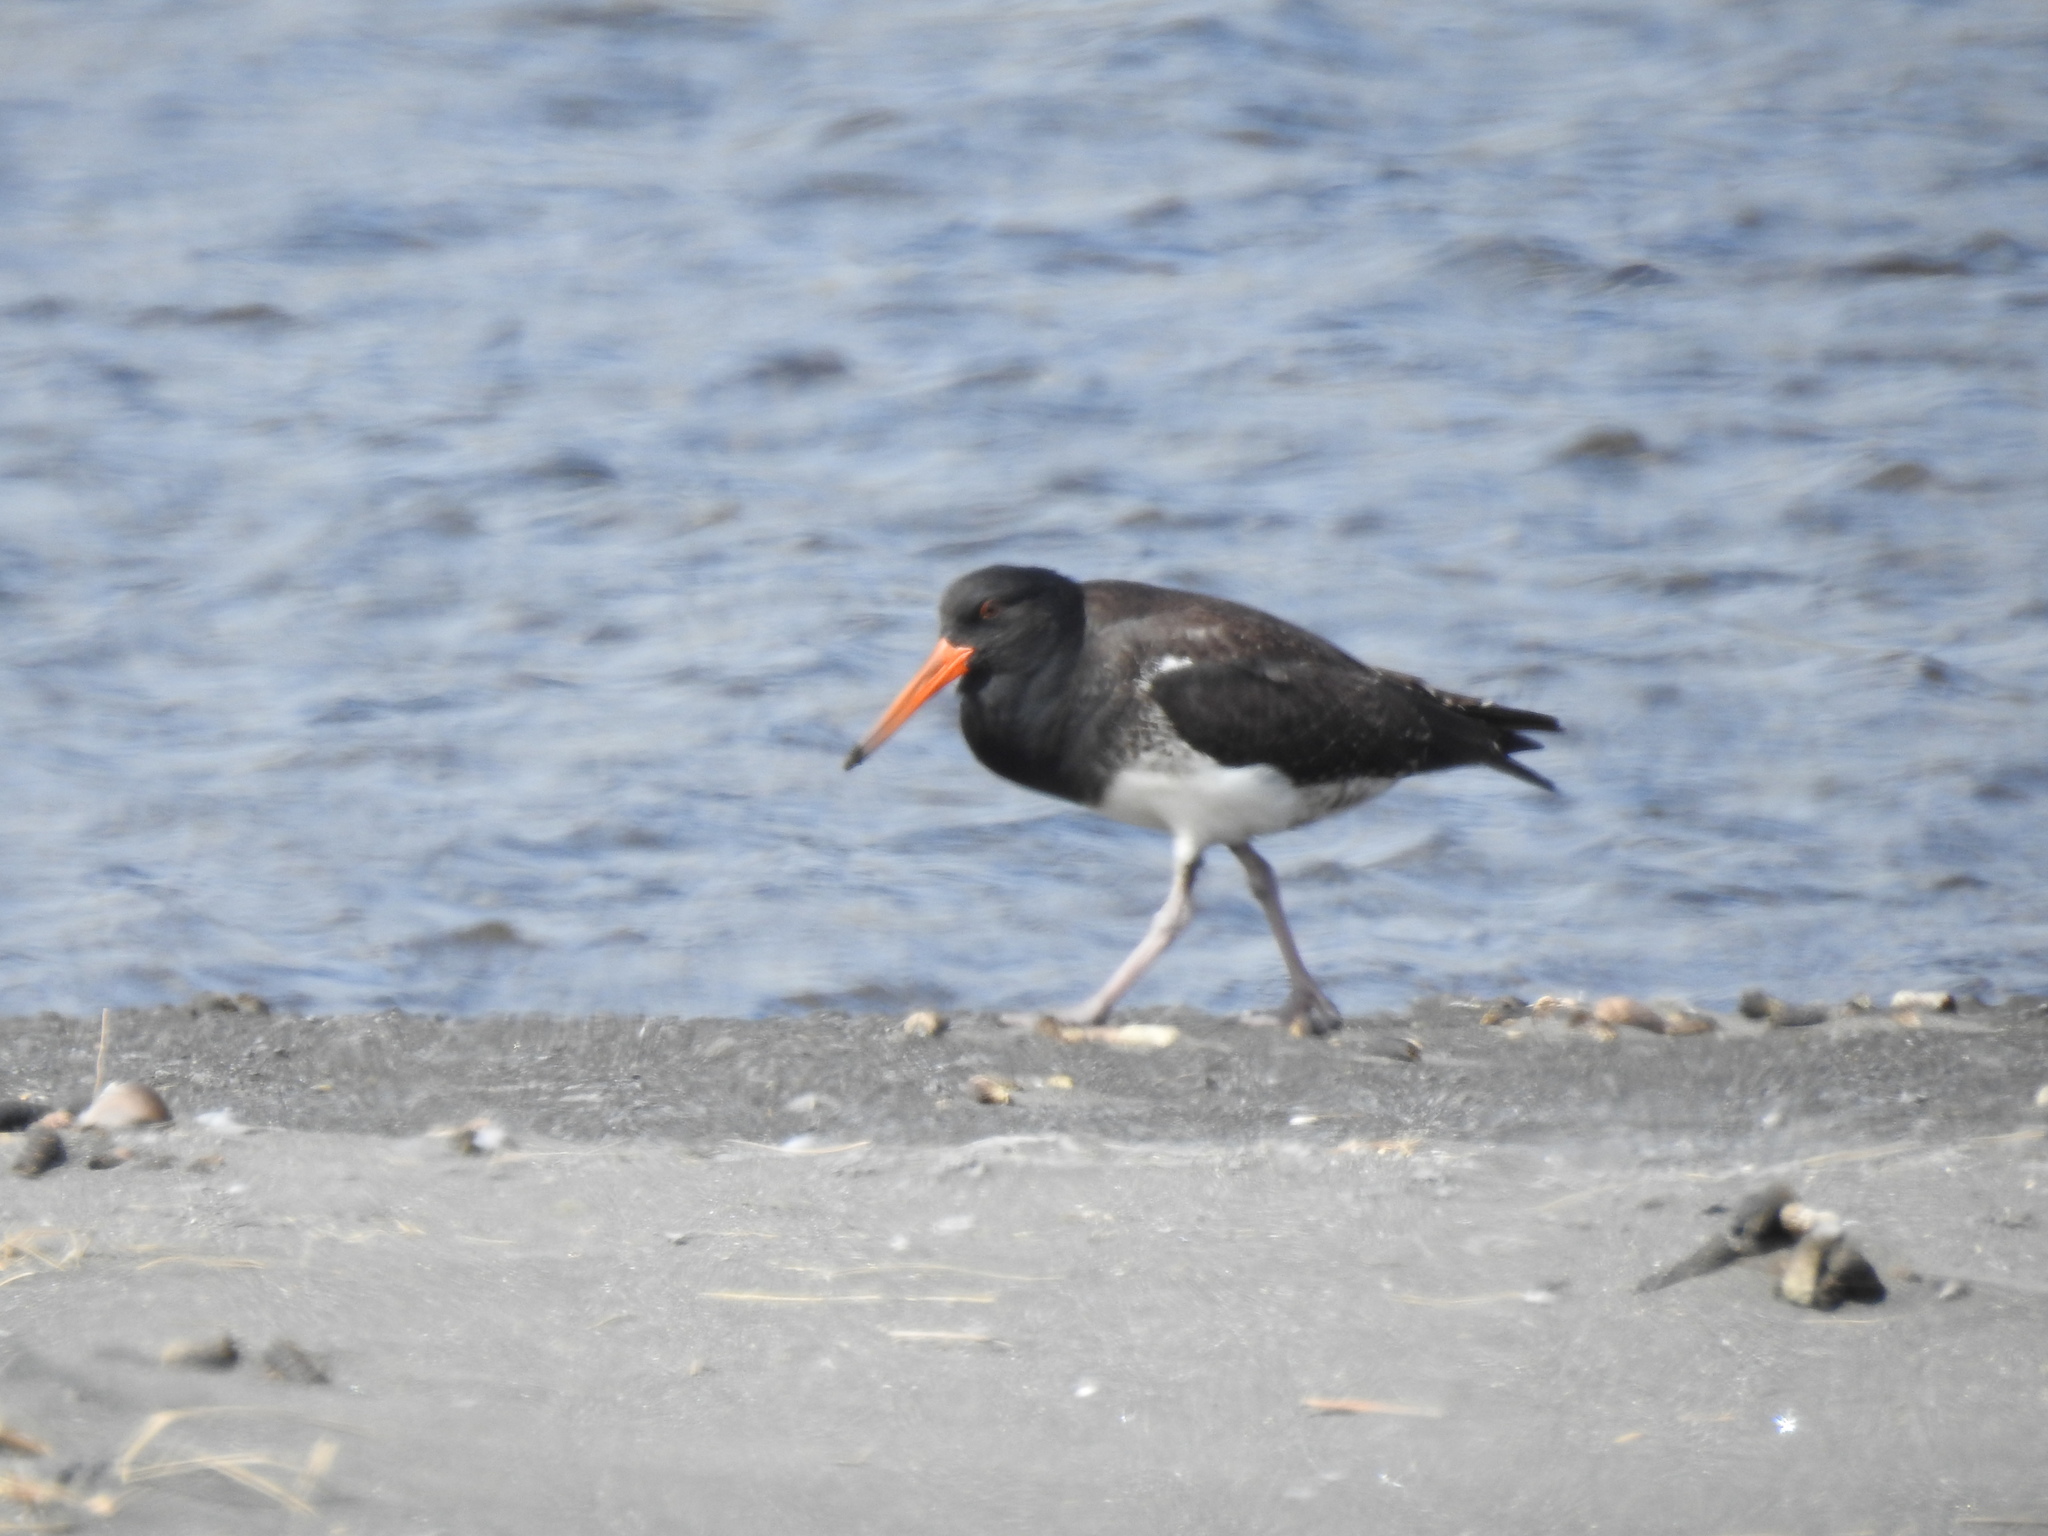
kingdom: Animalia
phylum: Chordata
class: Aves
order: Charadriiformes
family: Haematopodidae
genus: Haematopus
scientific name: Haematopus unicolor
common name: Variable oystercatcher
